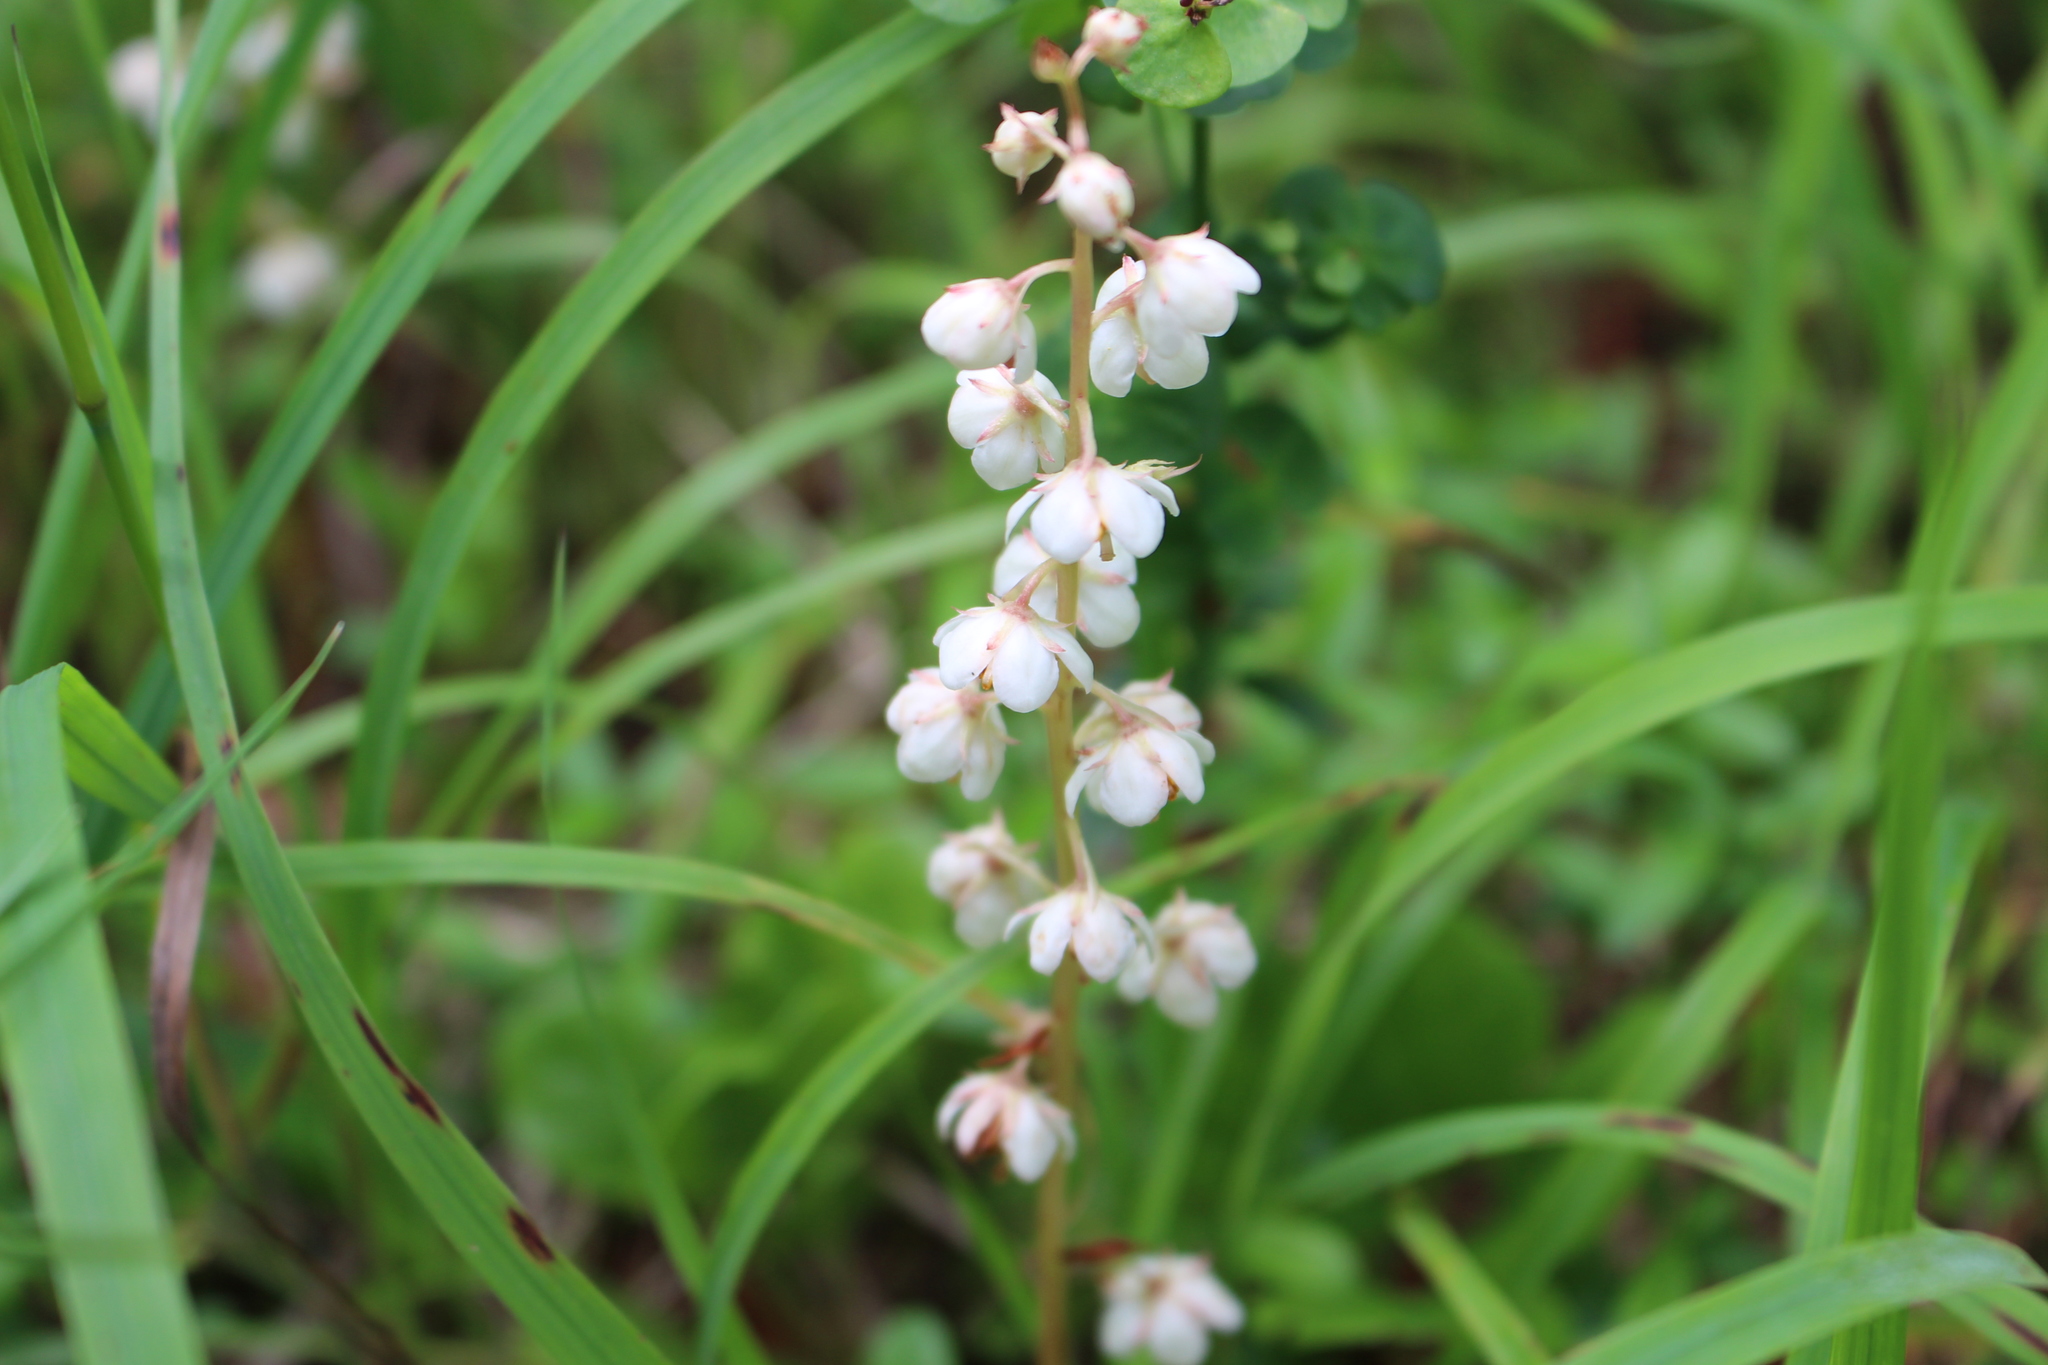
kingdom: Plantae
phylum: Tracheophyta
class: Magnoliopsida
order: Ericales
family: Ericaceae
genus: Pyrola
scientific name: Pyrola rotundifolia
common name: Round-leaved wintergreen
